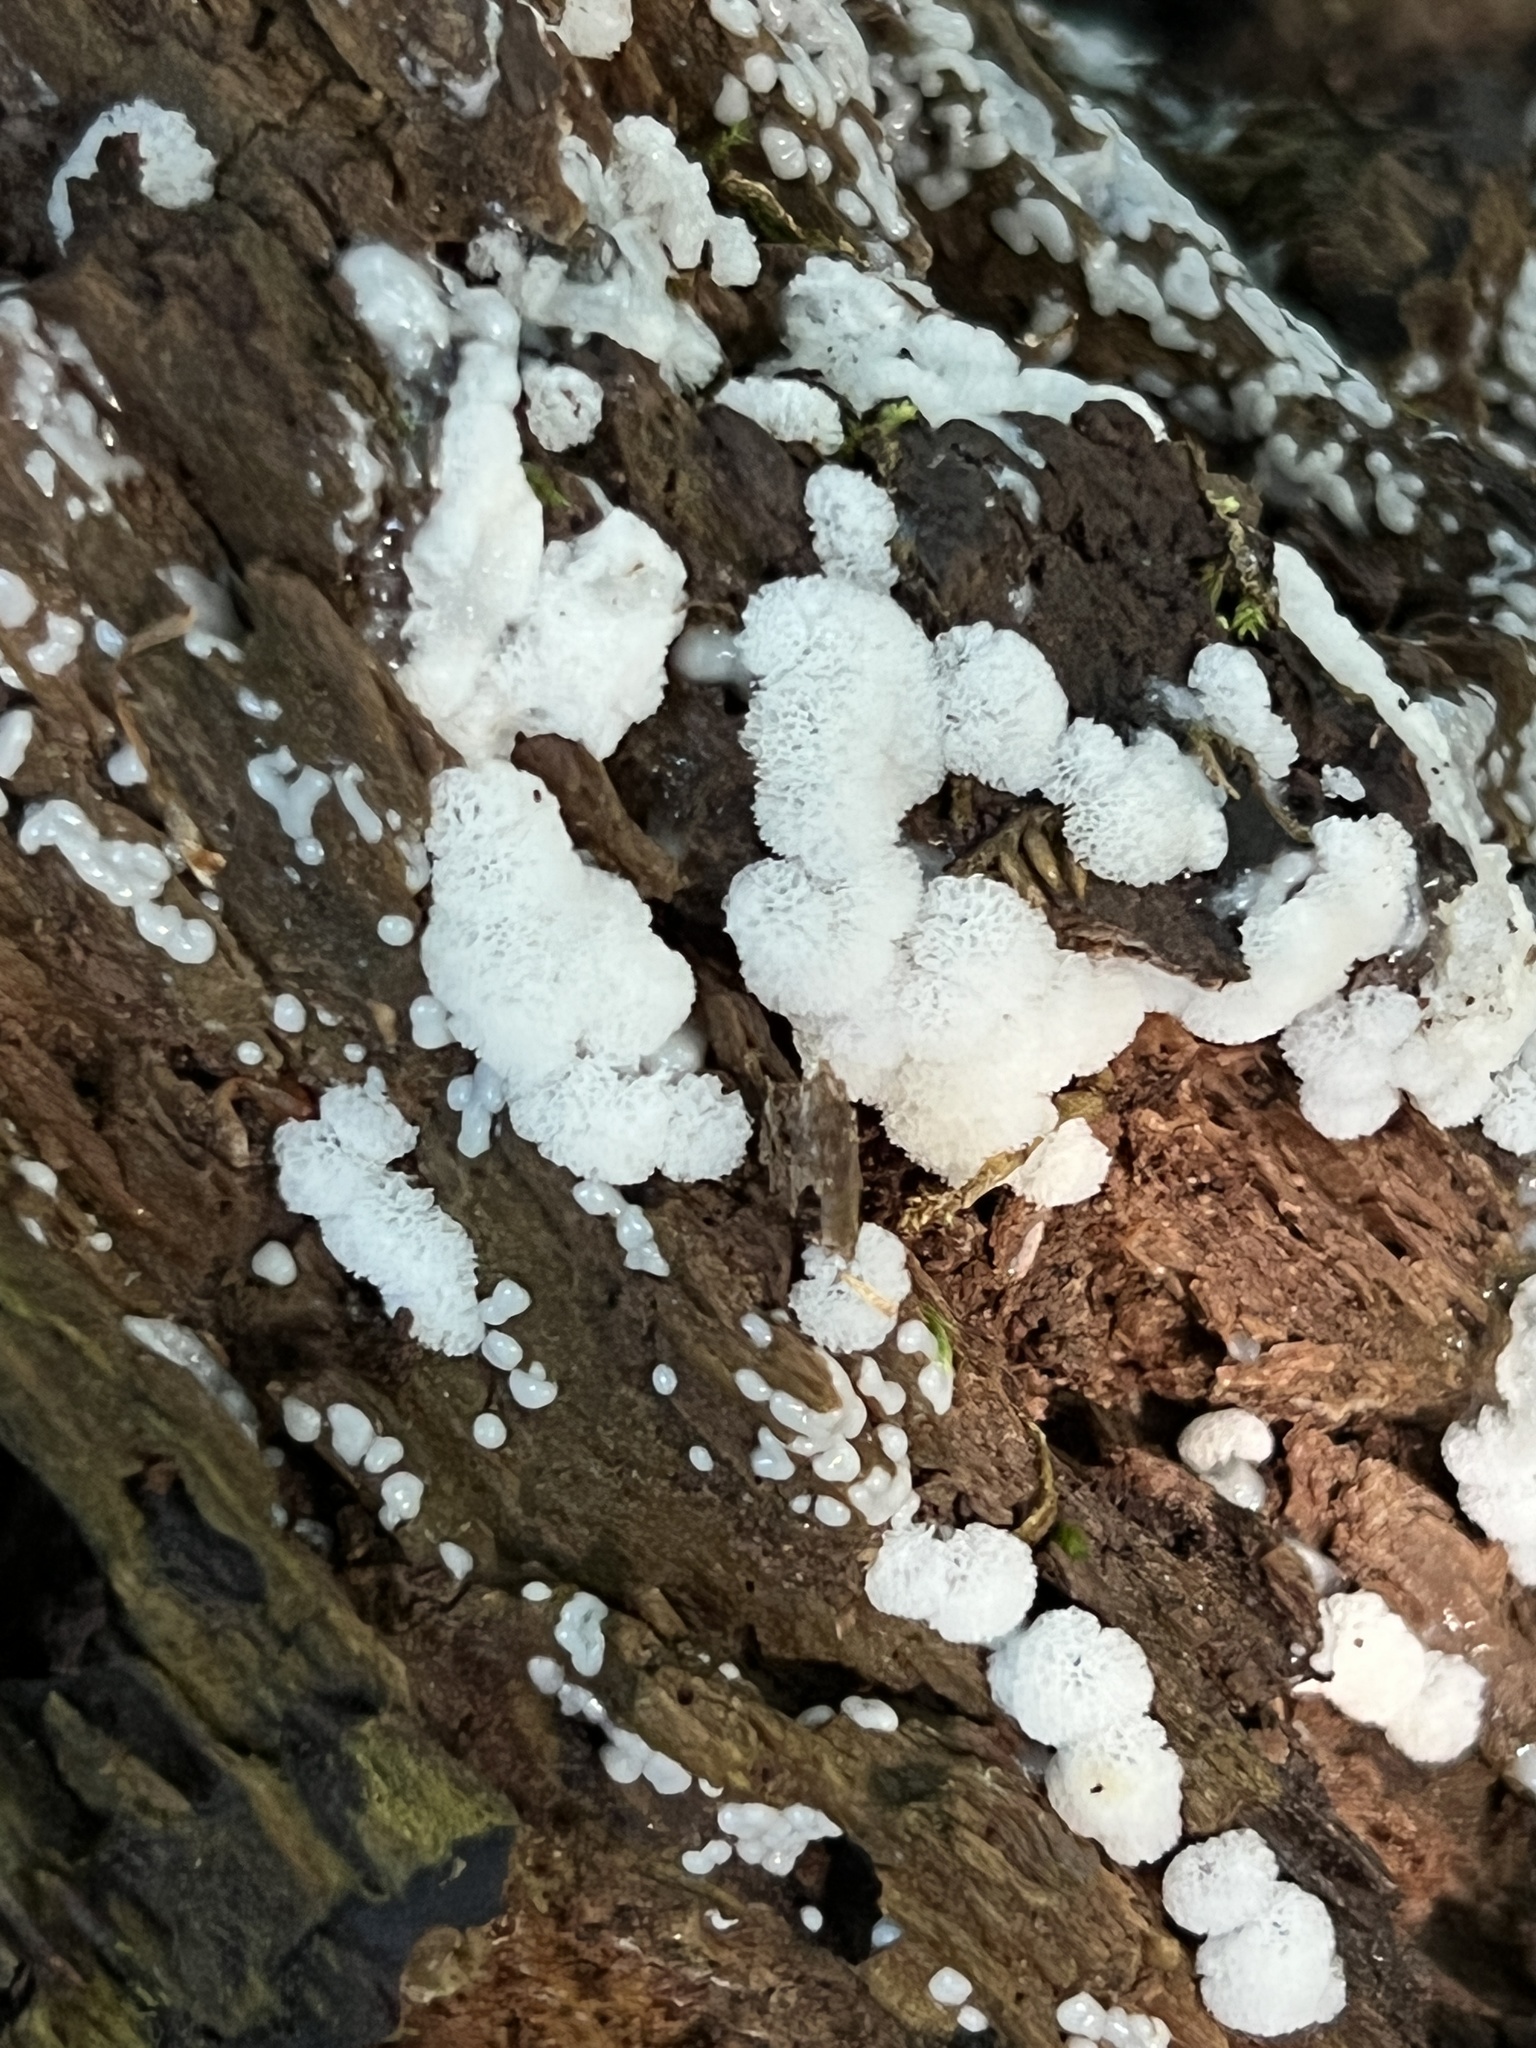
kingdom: Protozoa
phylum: Mycetozoa
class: Protosteliomycetes
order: Ceratiomyxales
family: Ceratiomyxaceae
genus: Ceratiomyxa
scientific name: Ceratiomyxa fruticulosa
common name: Honeycomb coral slime mold
